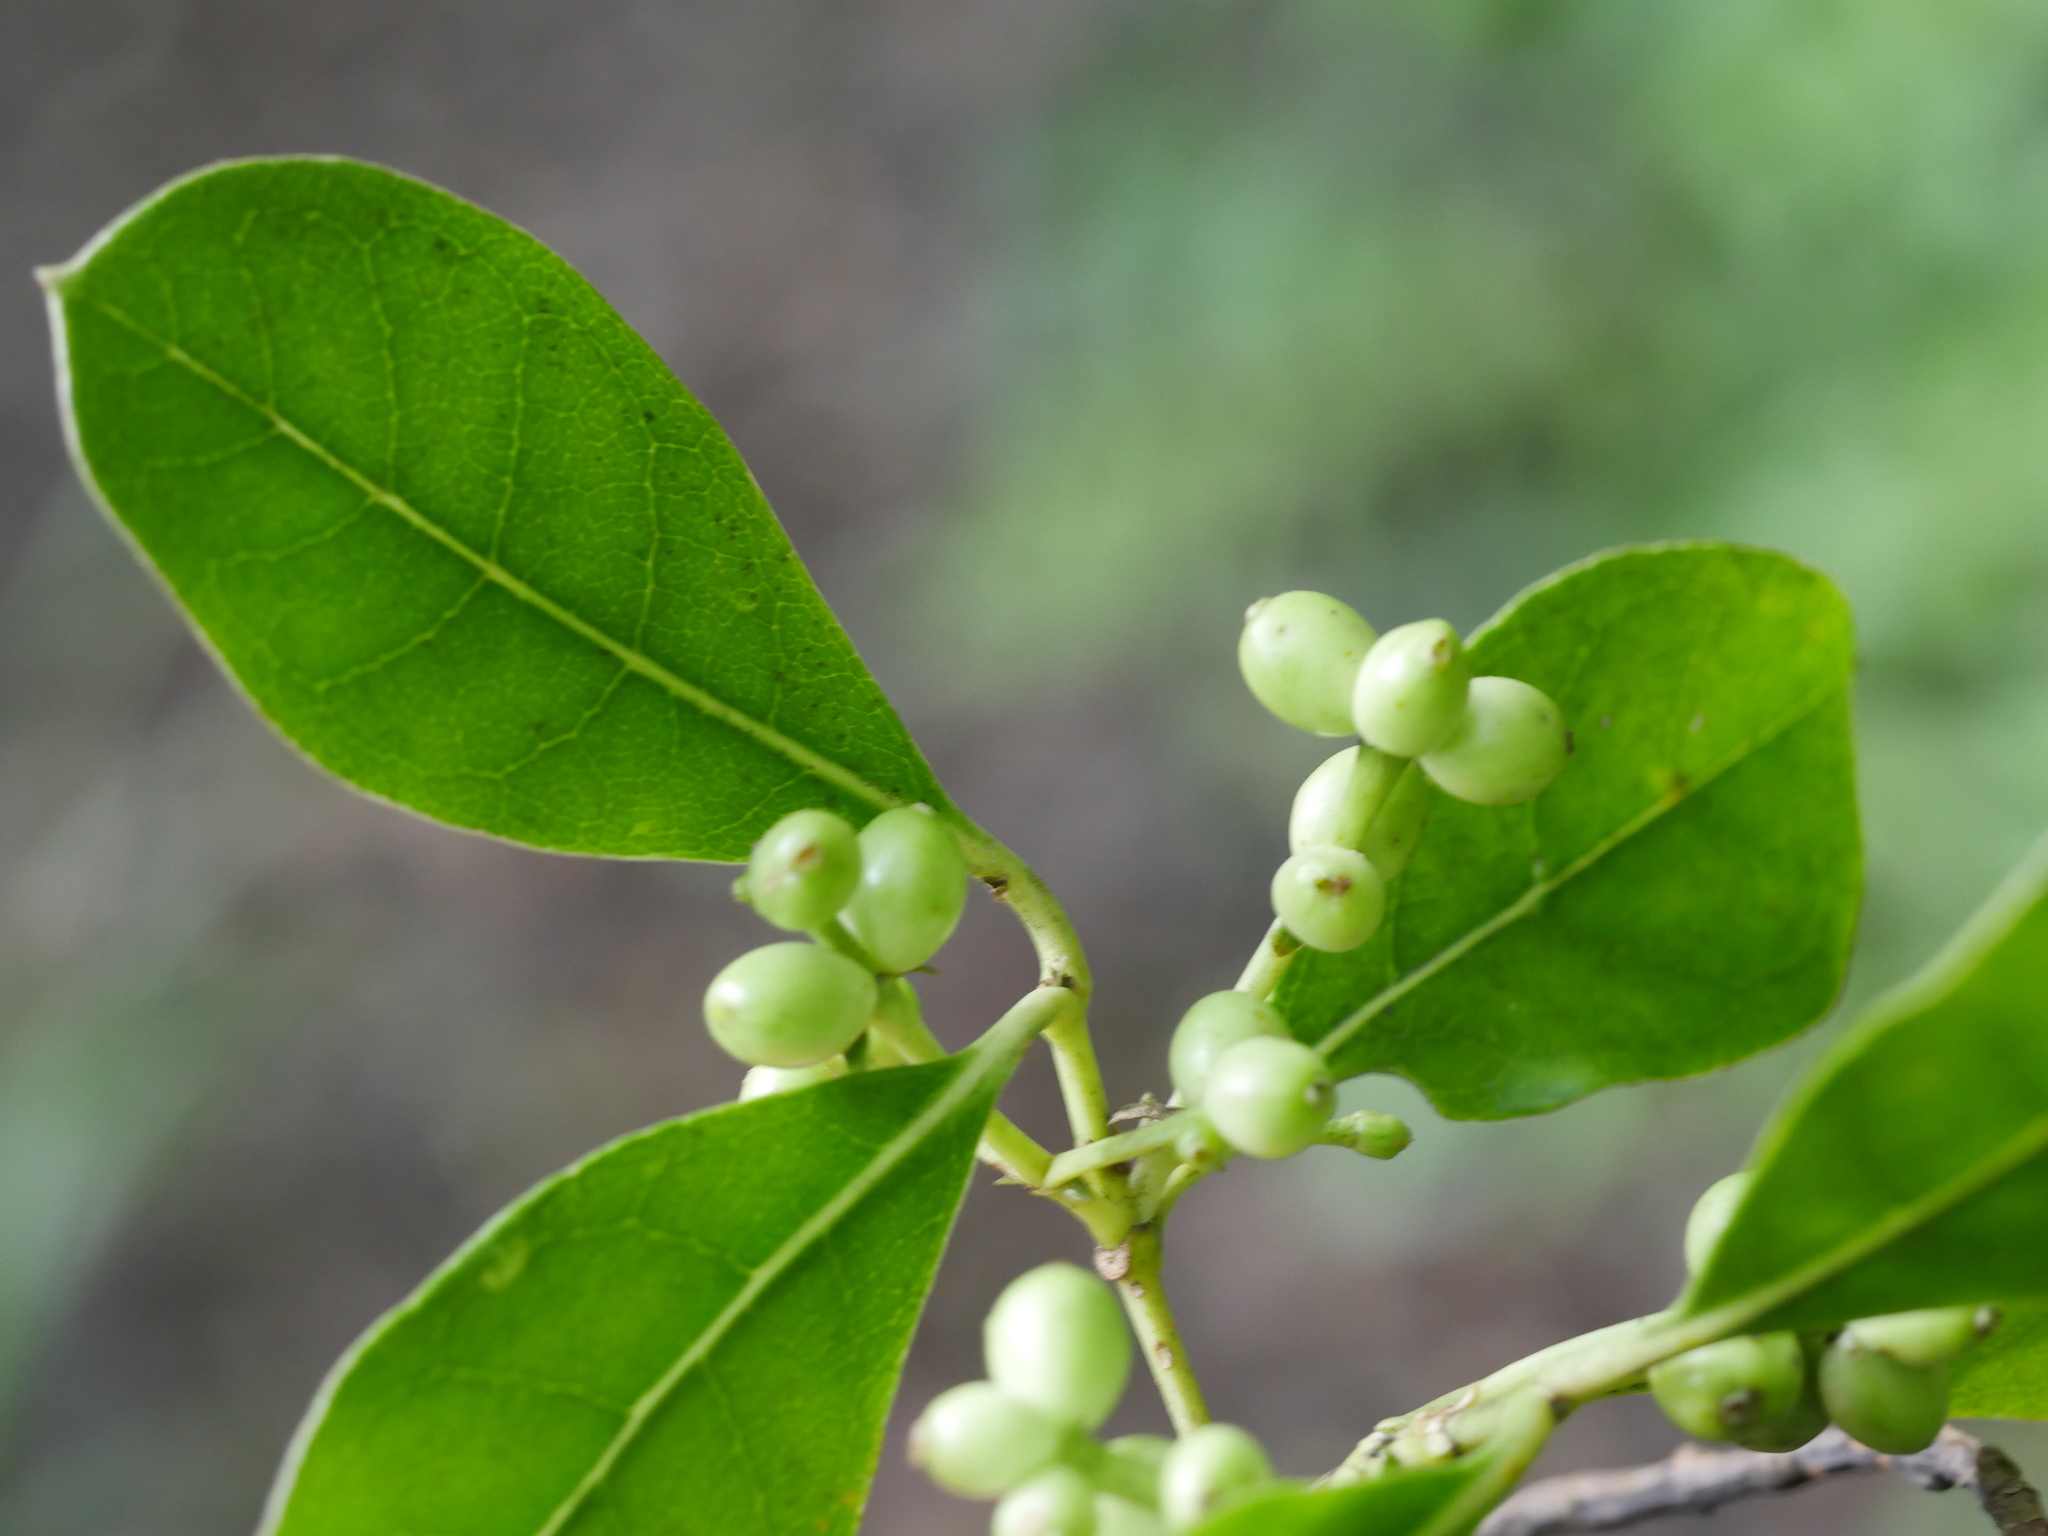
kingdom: Plantae
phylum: Tracheophyta
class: Magnoliopsida
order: Gentianales
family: Rubiaceae
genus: Coprosma
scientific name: Coprosma lucida
